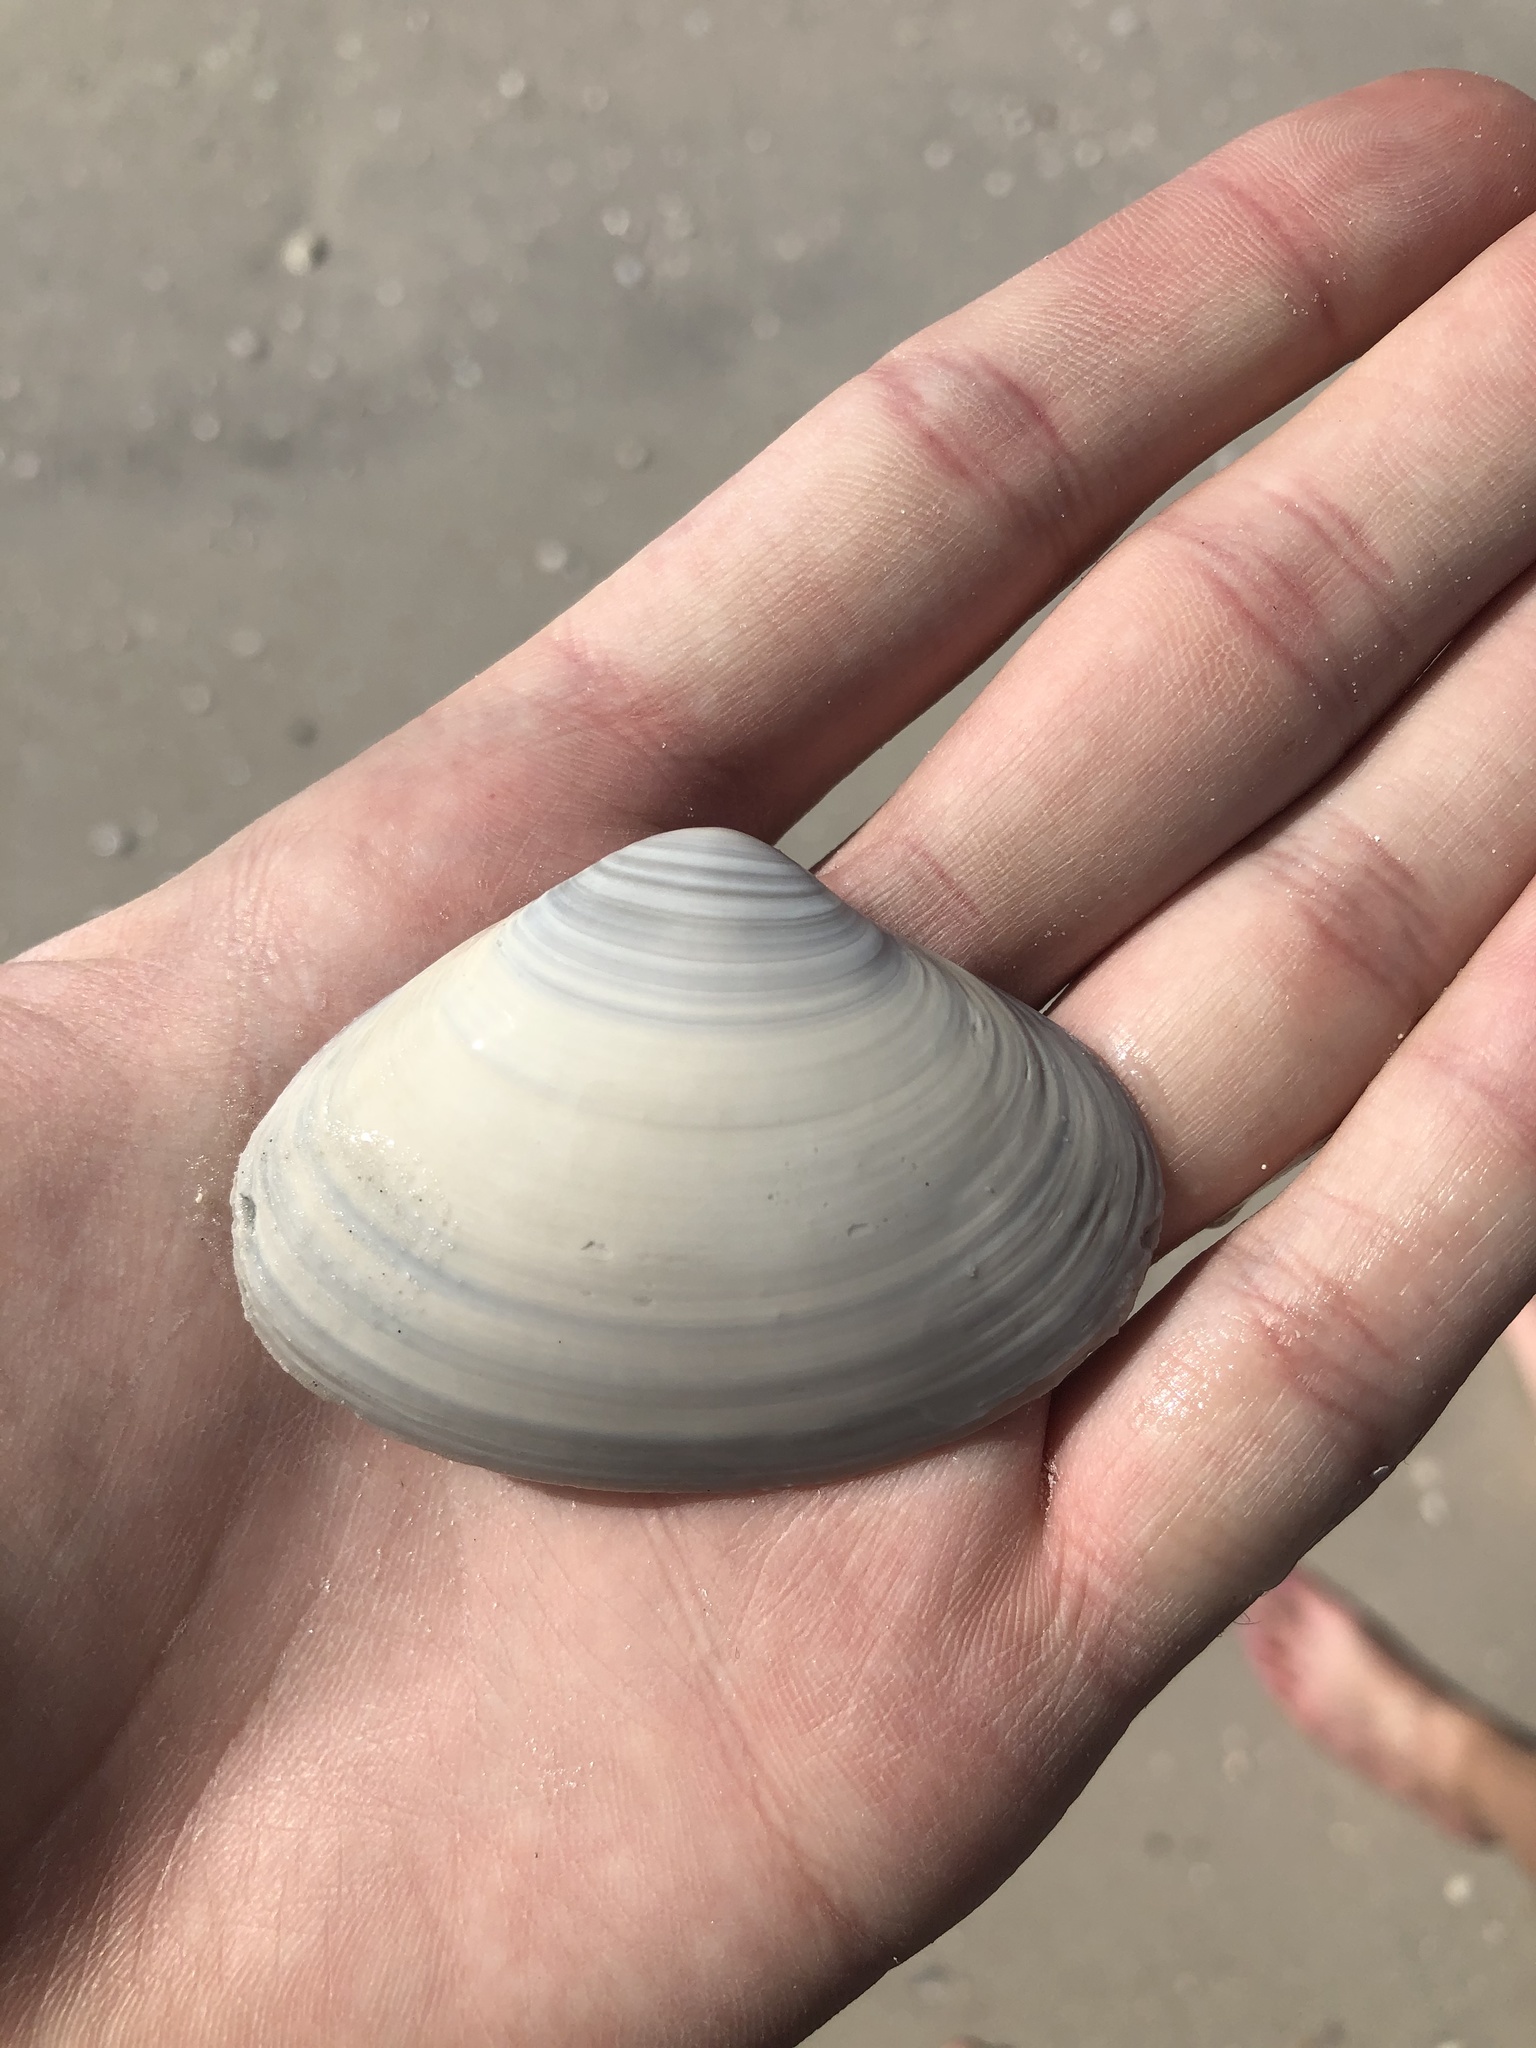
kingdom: Animalia
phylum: Mollusca
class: Bivalvia
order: Venerida
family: Mactridae
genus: Spisula
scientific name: Spisula raveneli
